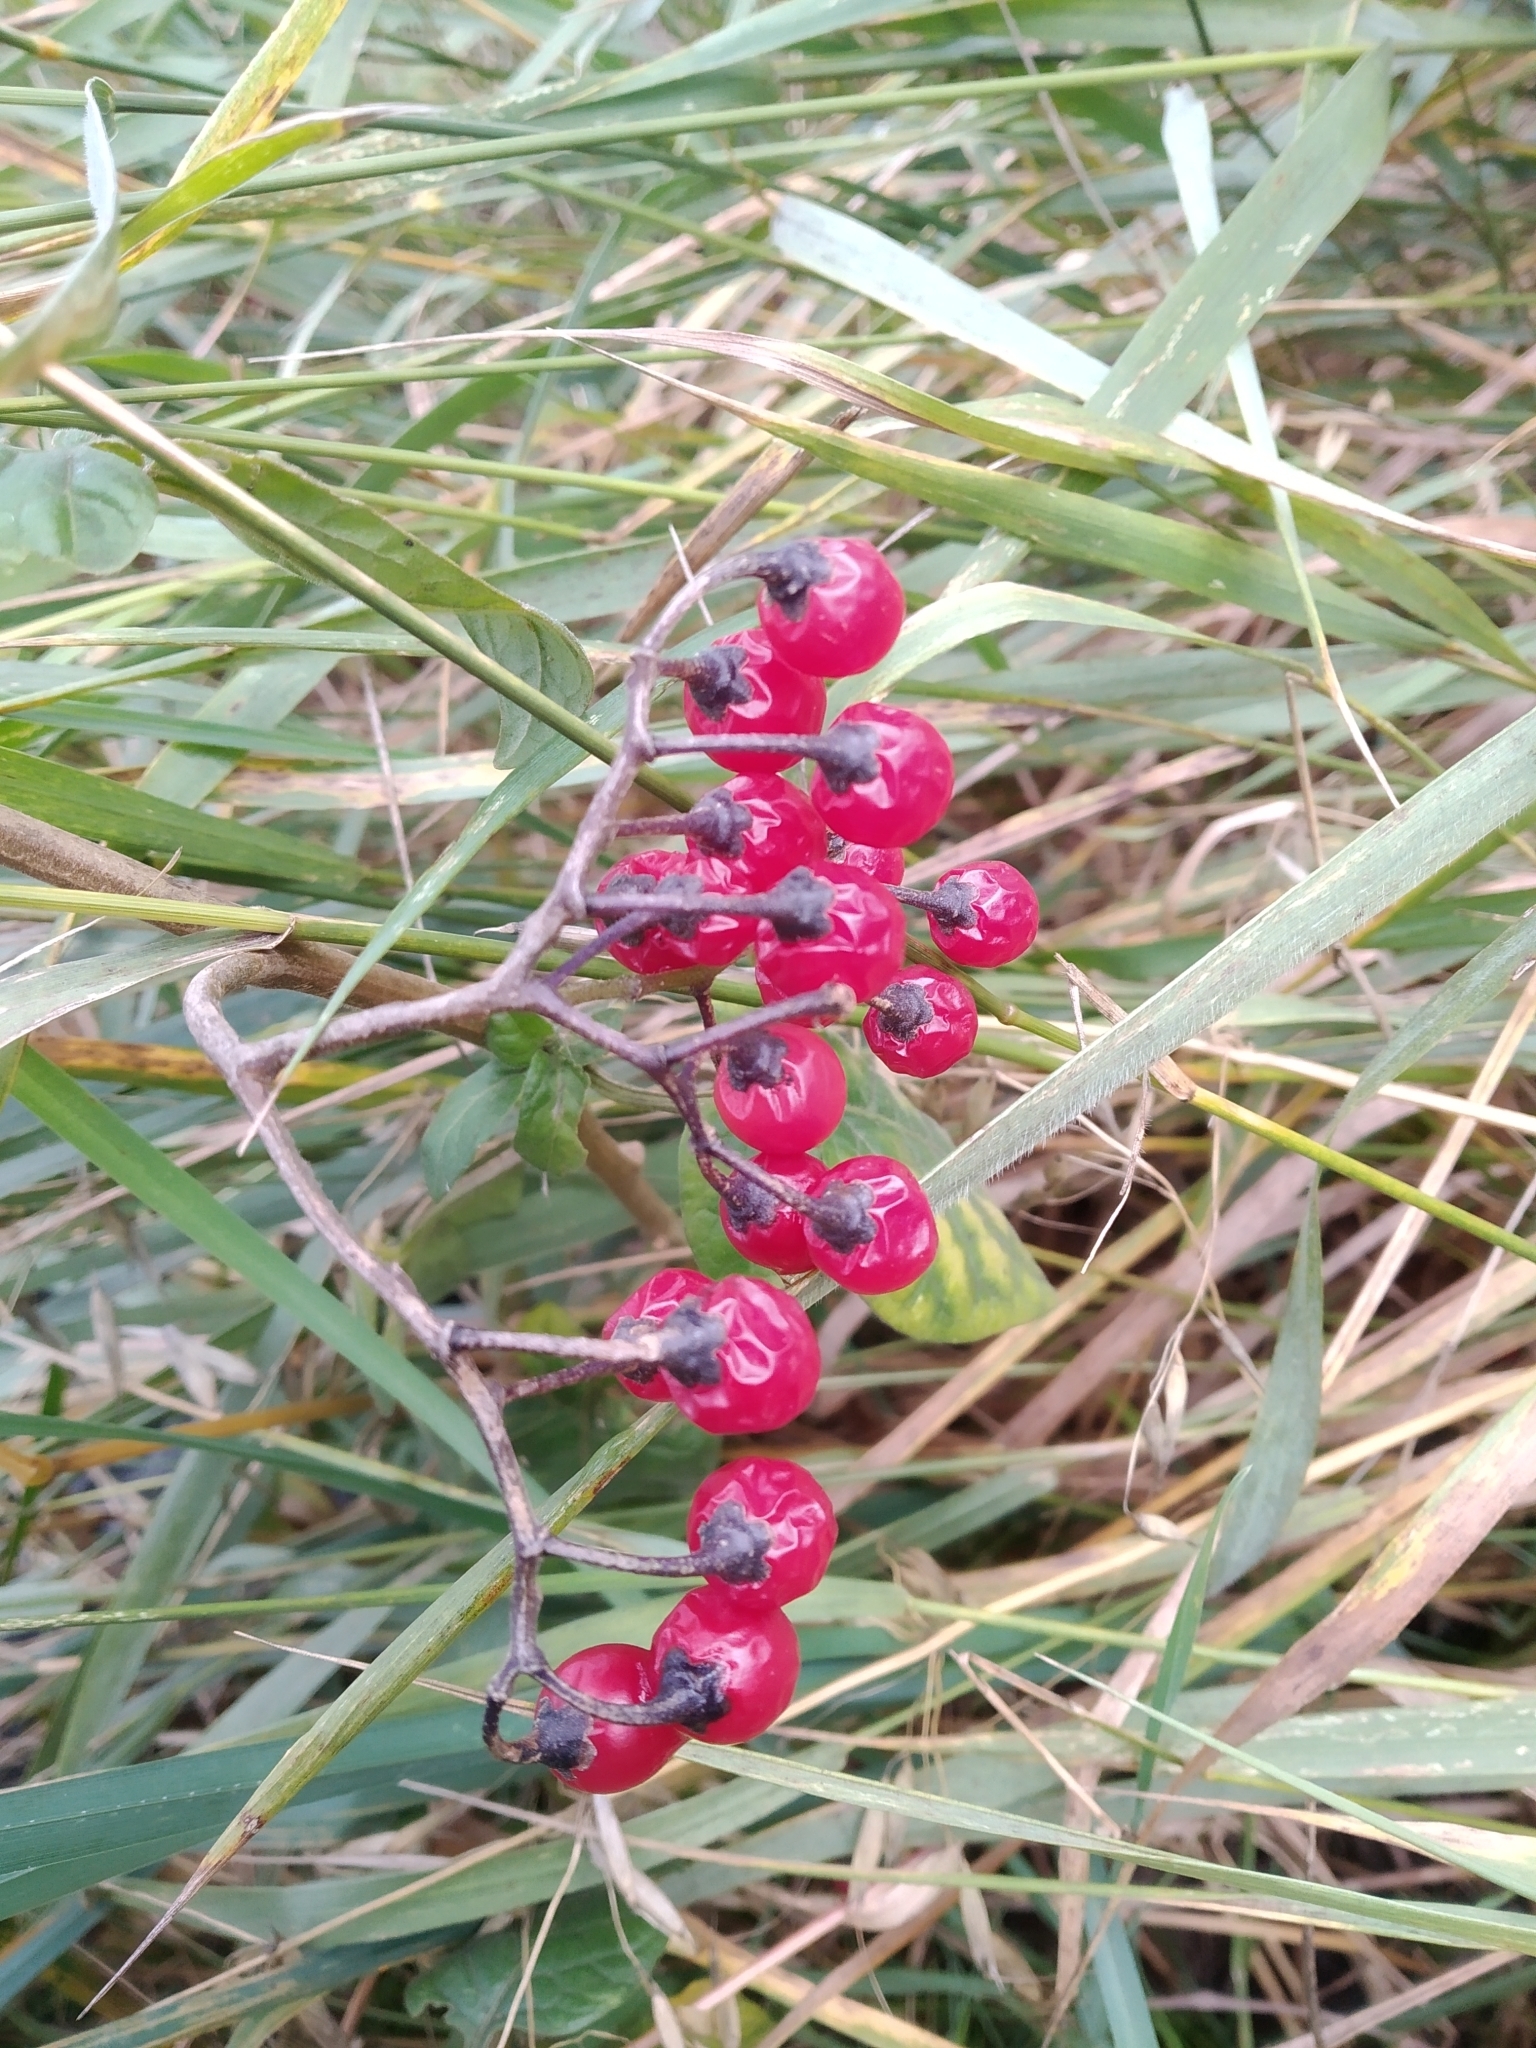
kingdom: Plantae
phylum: Tracheophyta
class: Magnoliopsida
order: Solanales
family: Solanaceae
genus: Solanum
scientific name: Solanum dulcamara
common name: Climbing nightshade
